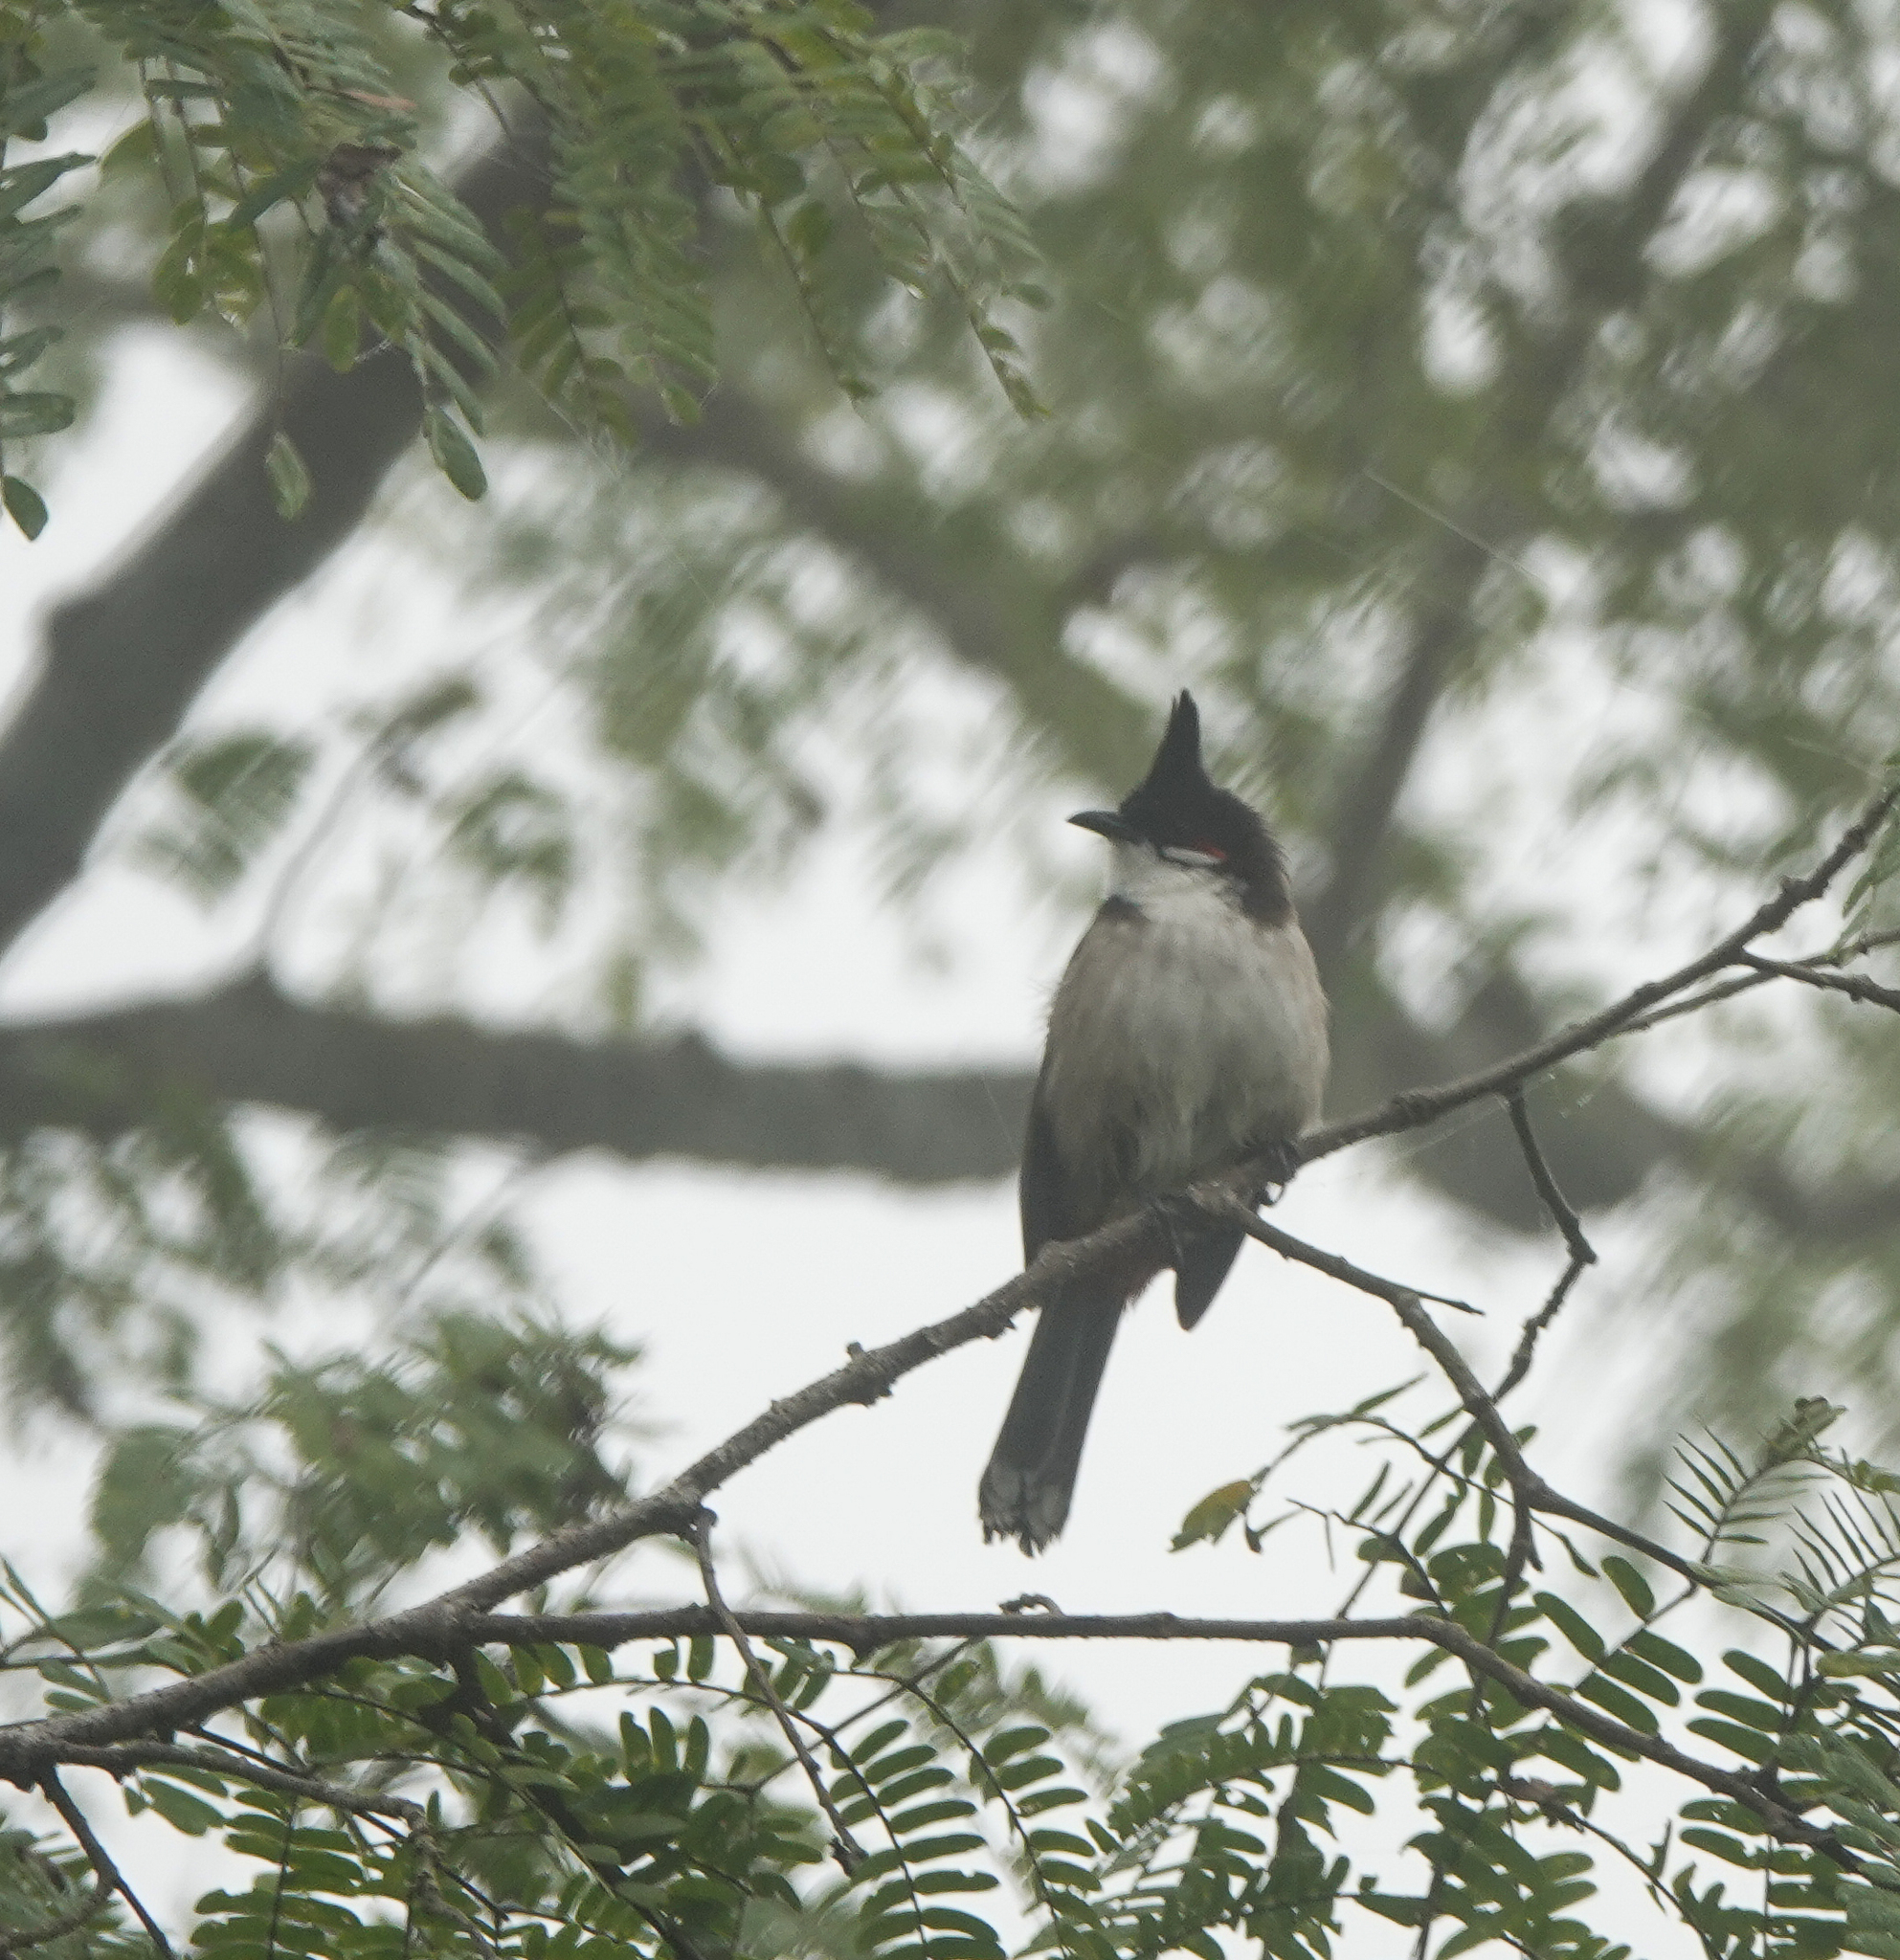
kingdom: Animalia
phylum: Chordata
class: Aves
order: Passeriformes
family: Pycnonotidae
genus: Pycnonotus
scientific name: Pycnonotus jocosus
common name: Red-whiskered bulbul
